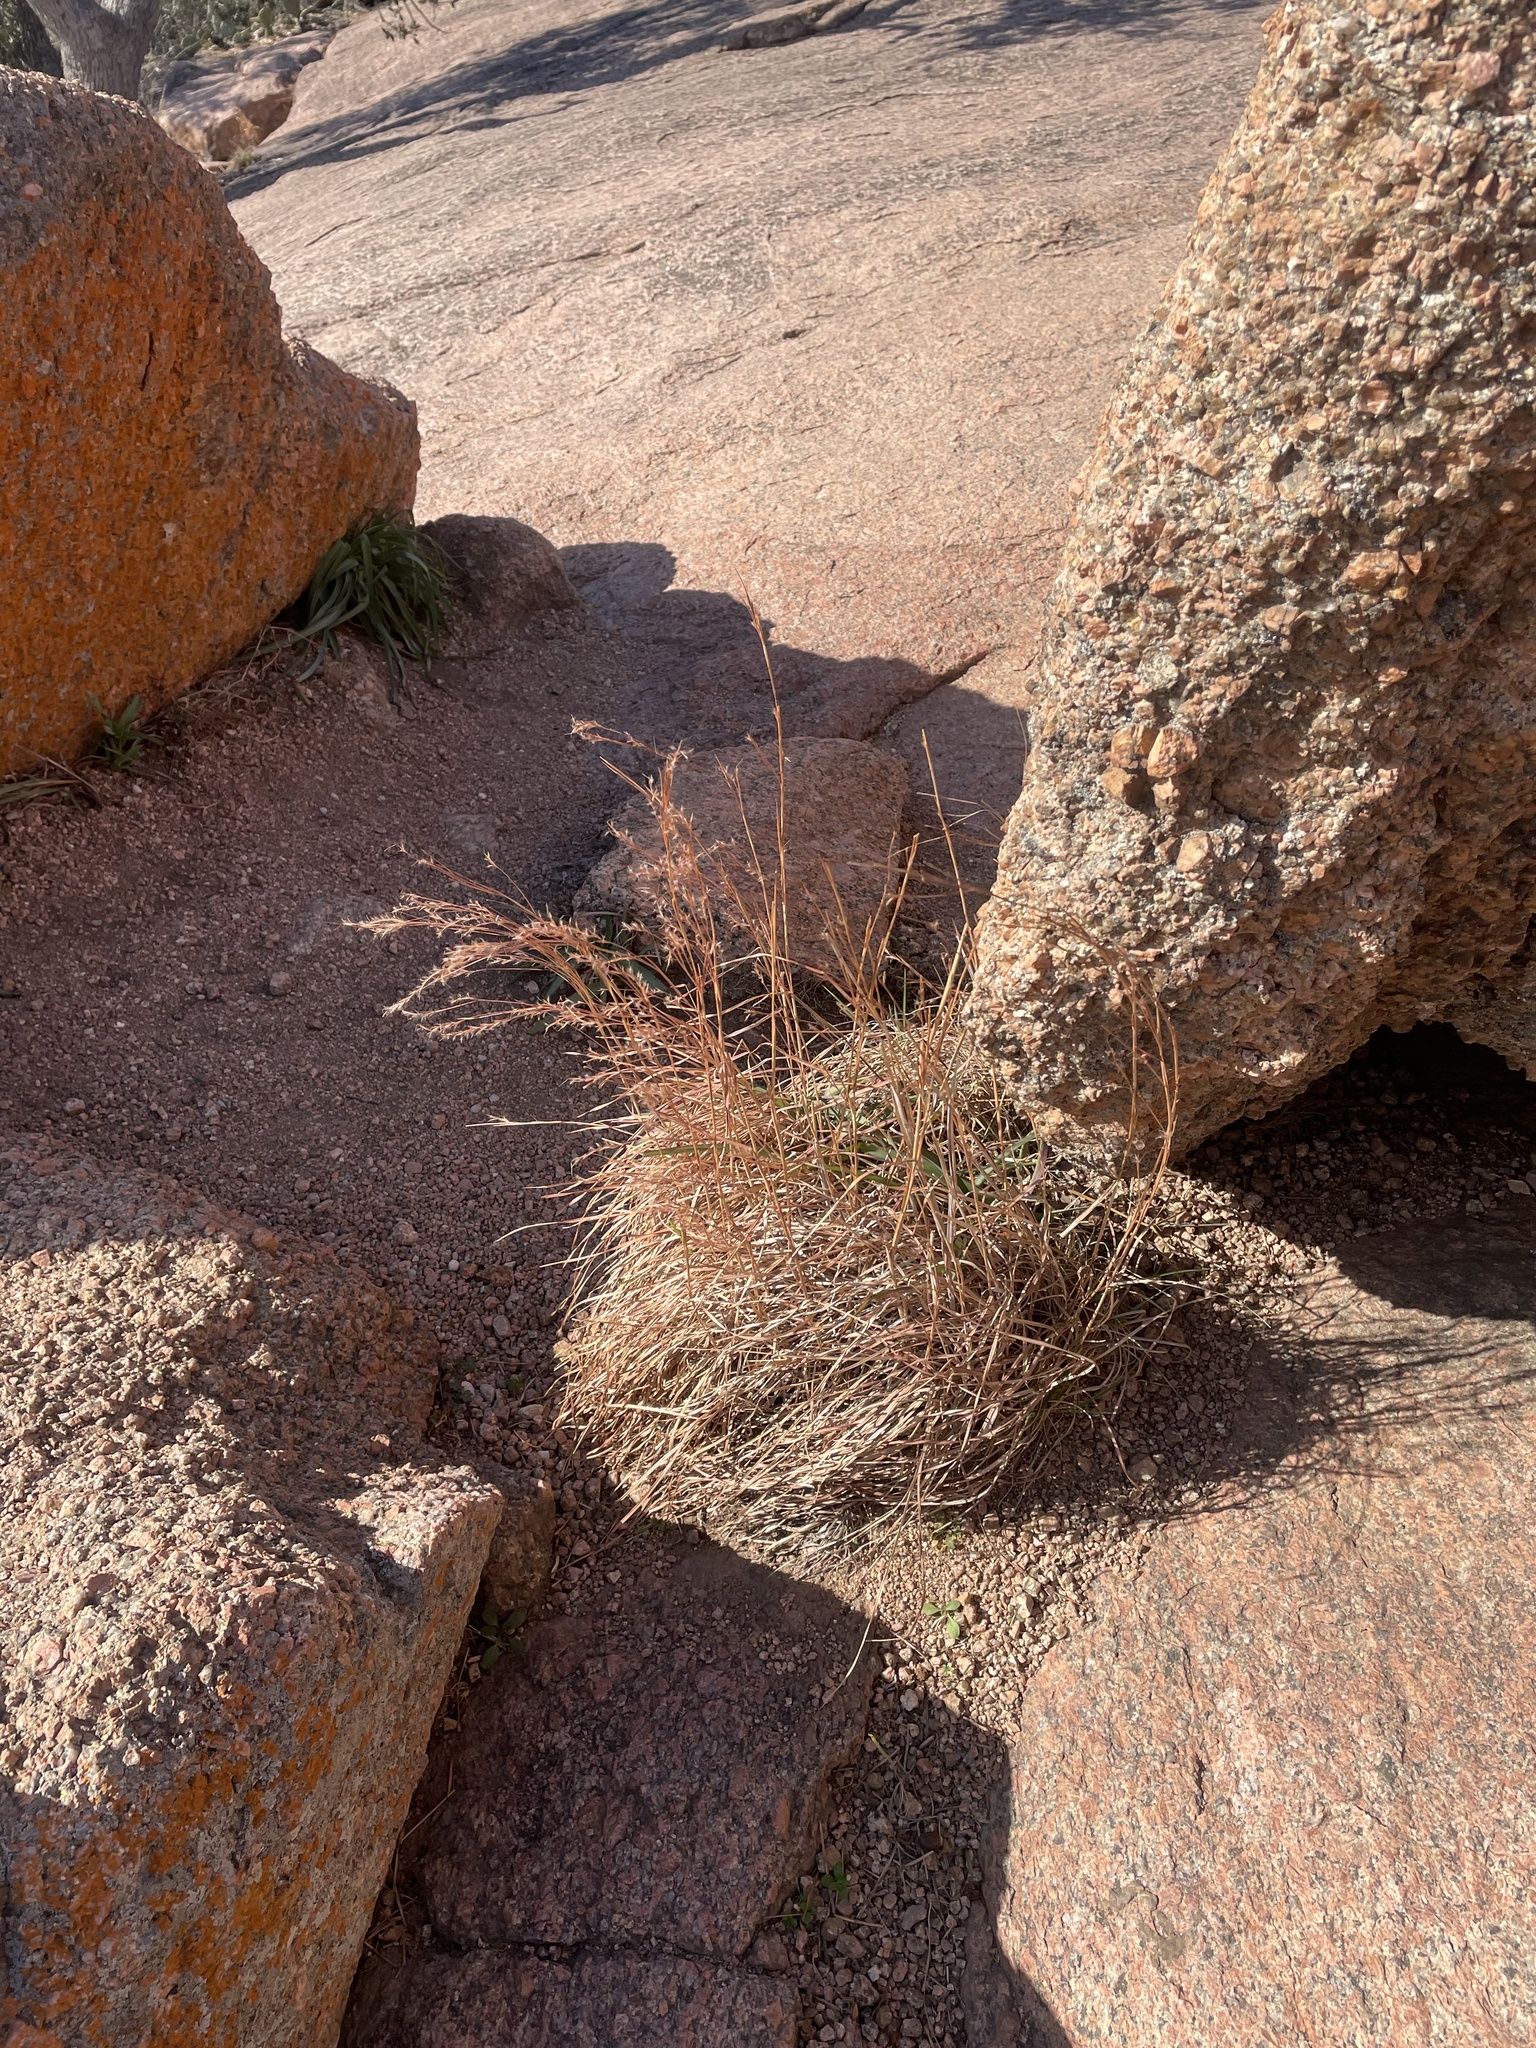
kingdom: Plantae
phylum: Tracheophyta
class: Liliopsida
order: Poales
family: Poaceae
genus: Schizachyrium
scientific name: Schizachyrium scoparium
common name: Little bluestem
